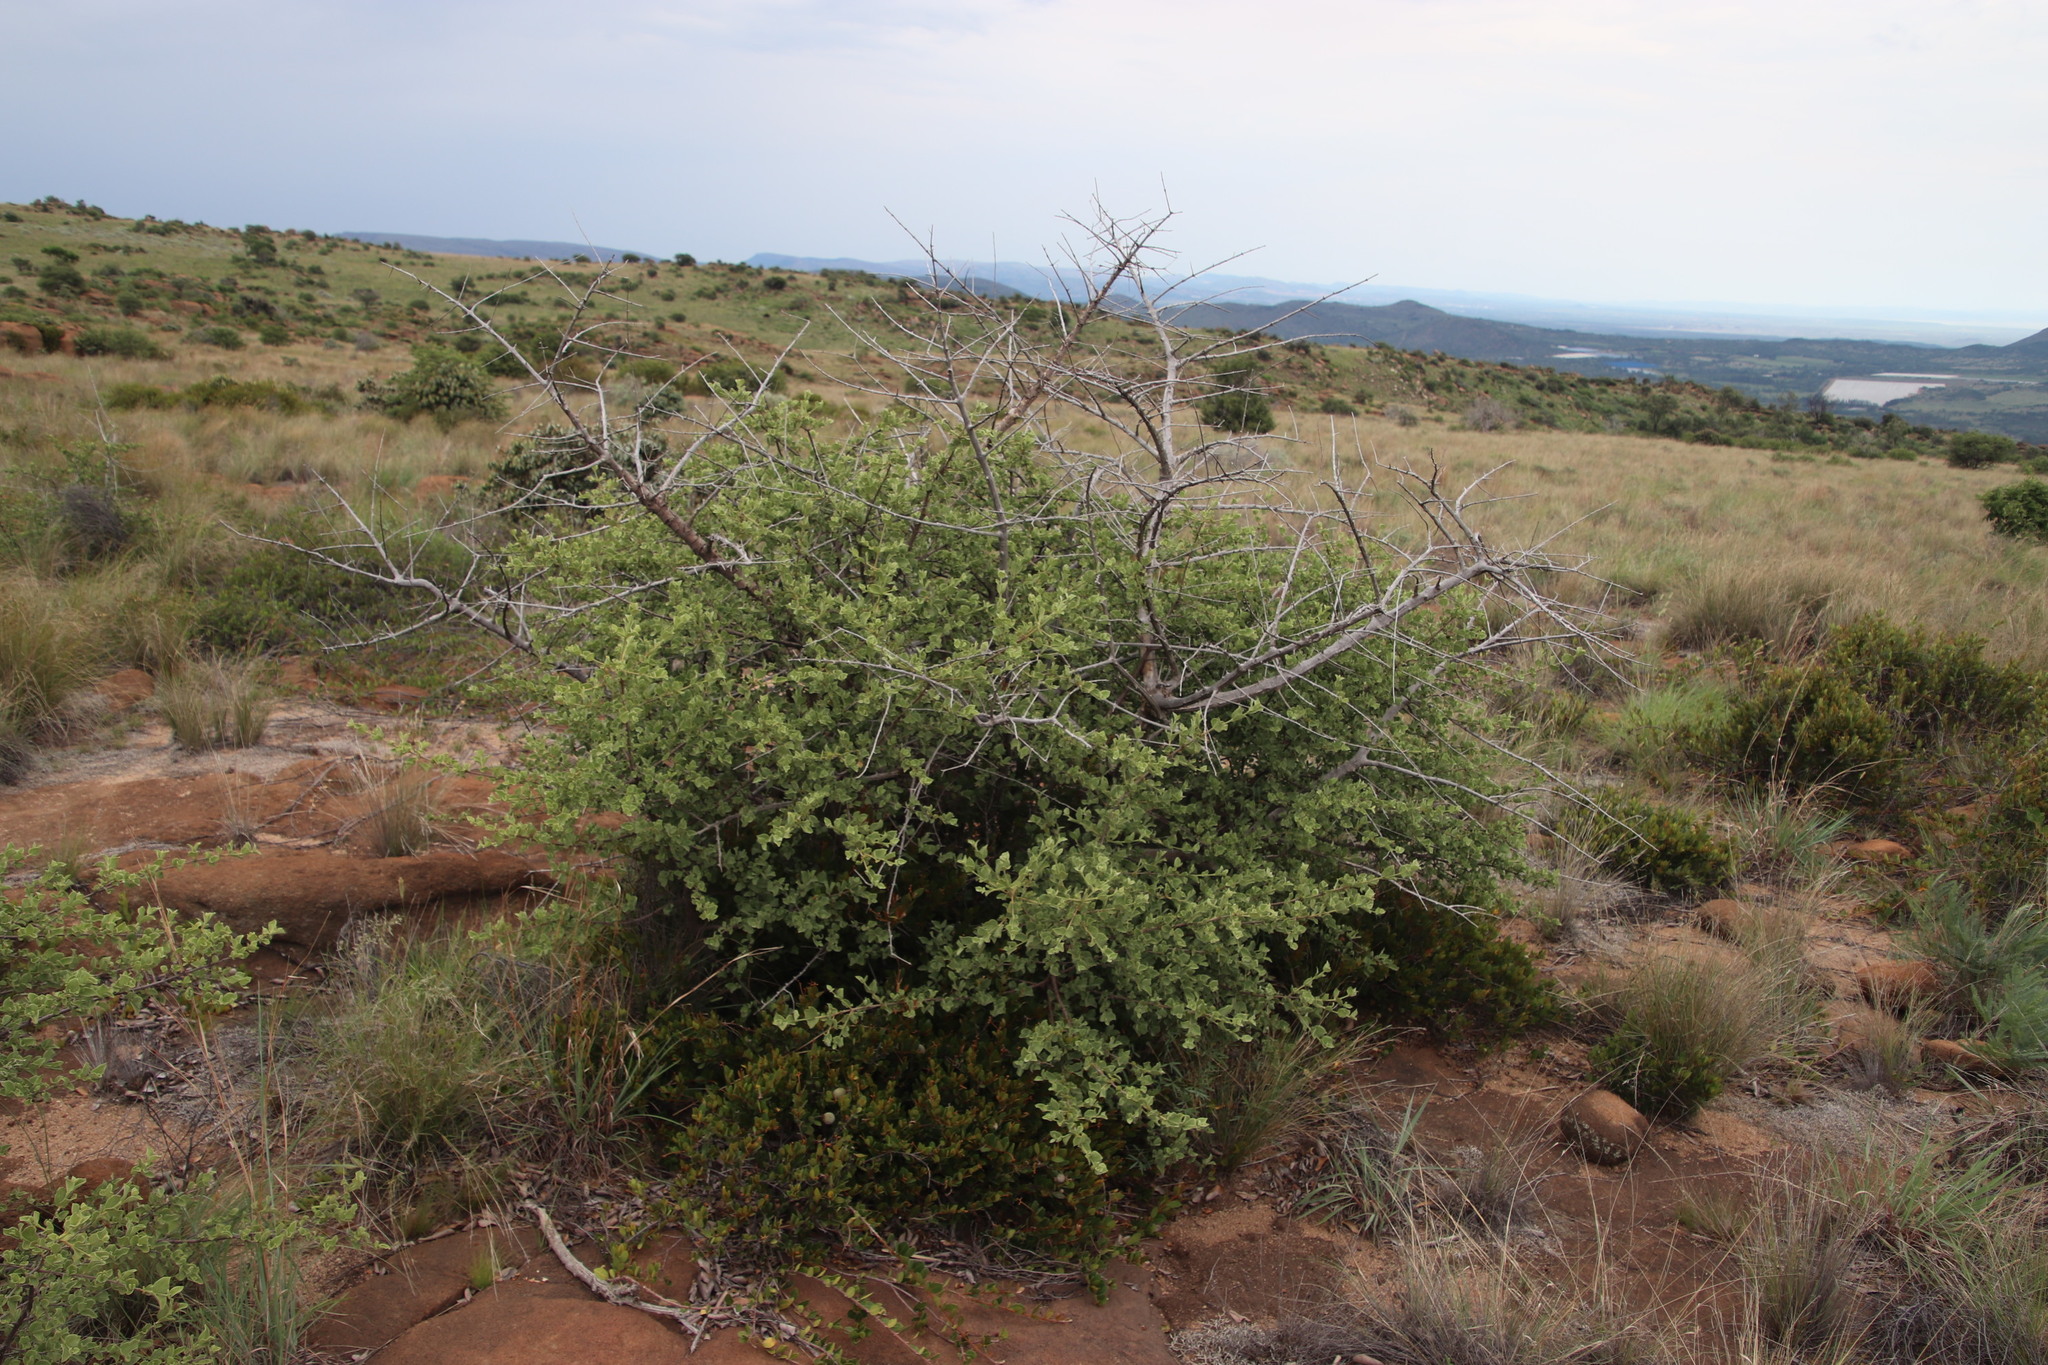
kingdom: Plantae
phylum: Tracheophyta
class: Magnoliopsida
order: Gentianales
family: Rubiaceae
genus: Vangueria
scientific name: Vangueria parvifolia
